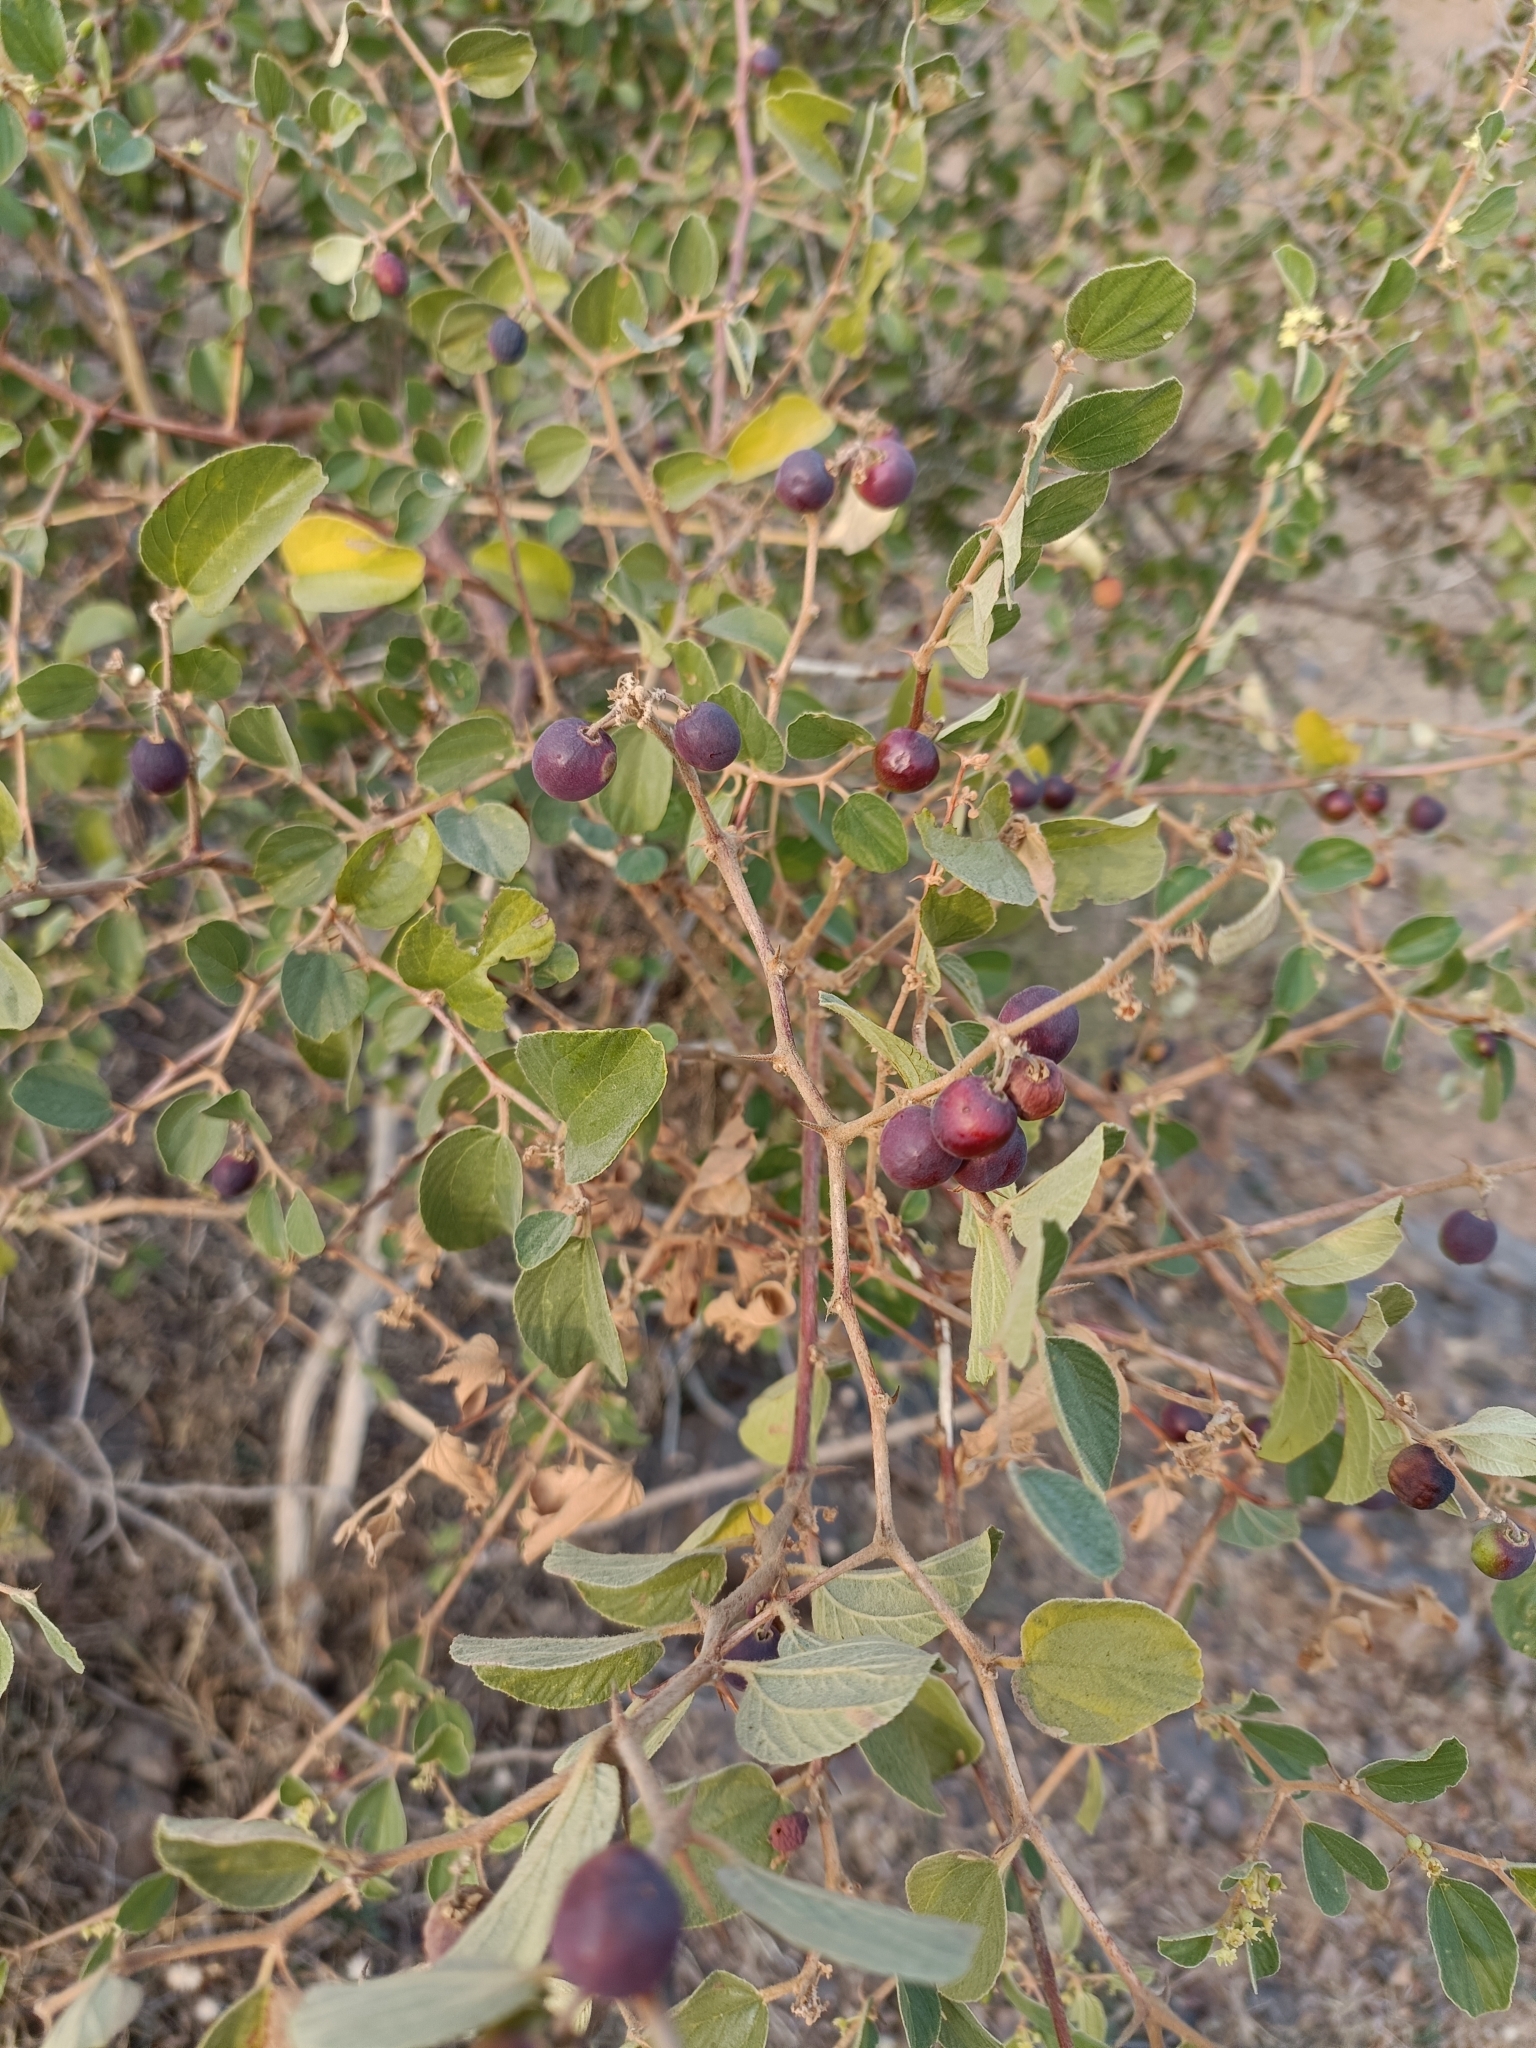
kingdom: Plantae
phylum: Tracheophyta
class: Magnoliopsida
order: Rosales
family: Rhamnaceae
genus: Ziziphus
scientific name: Ziziphus mauritiana
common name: Indian jujube
